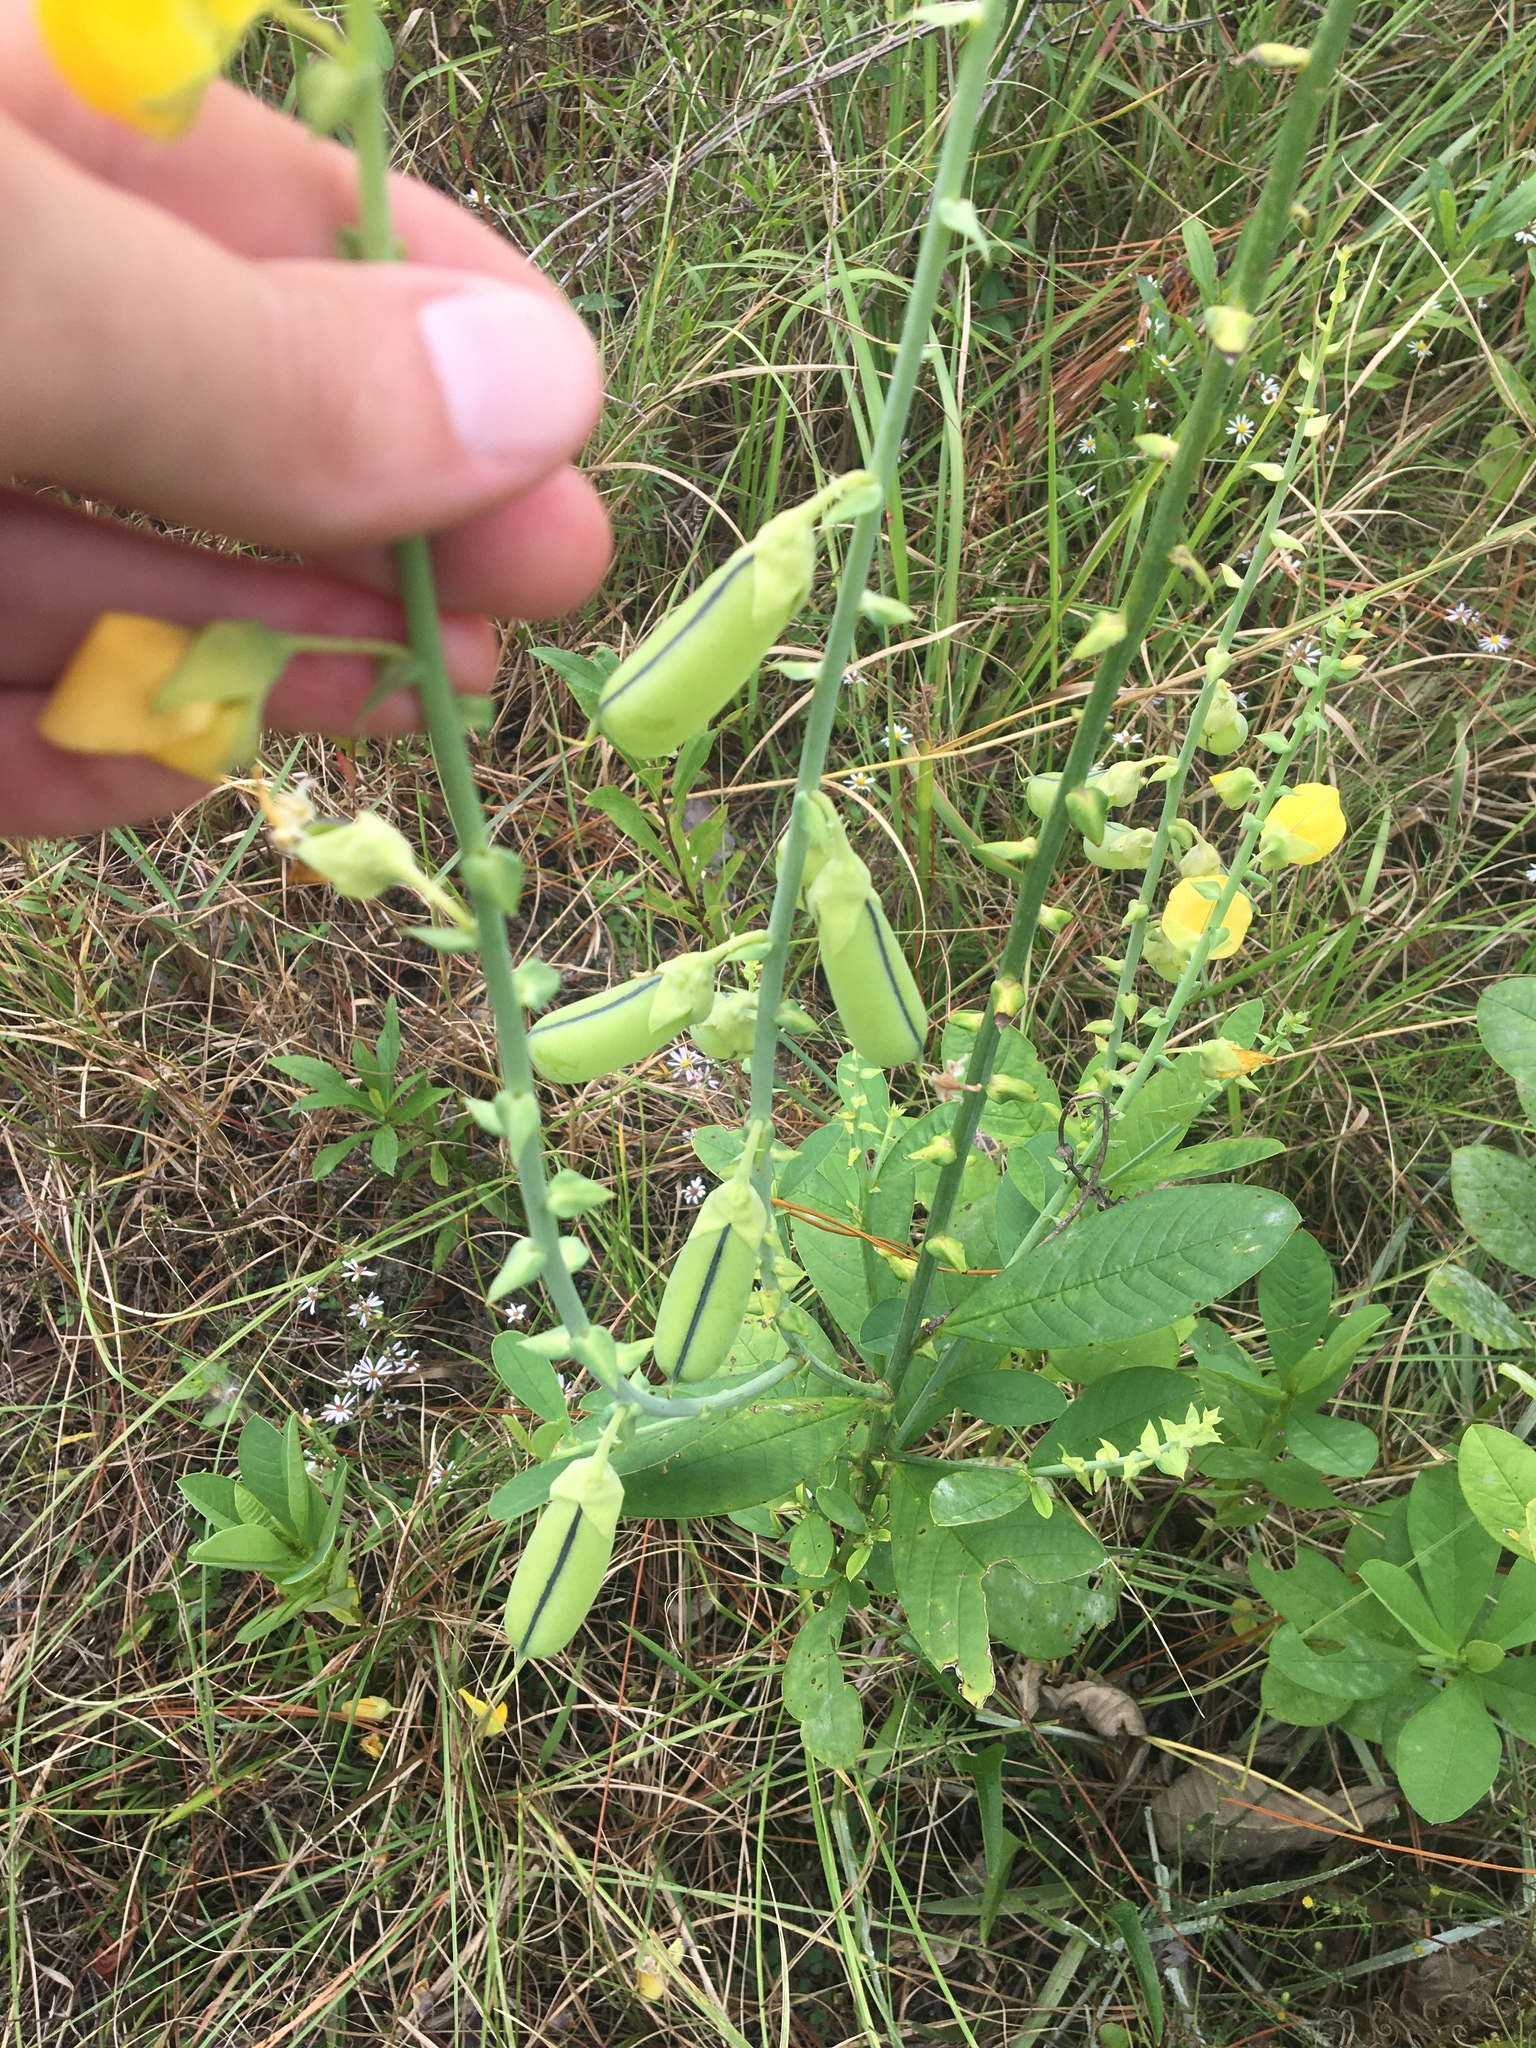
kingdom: Plantae
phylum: Tracheophyta
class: Magnoliopsida
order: Fabales
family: Fabaceae
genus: Crotalaria
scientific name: Crotalaria spectabilis
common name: Showy rattlebox
